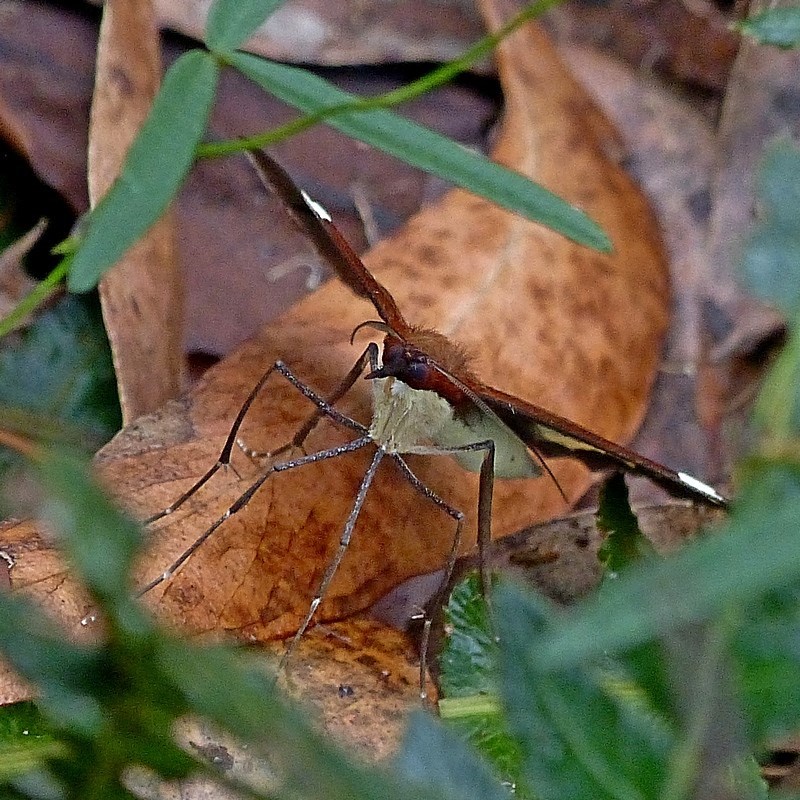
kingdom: Animalia
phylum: Arthropoda
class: Insecta
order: Lepidoptera
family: Geometridae
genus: Epidesmia
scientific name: Epidesmia tricolor
